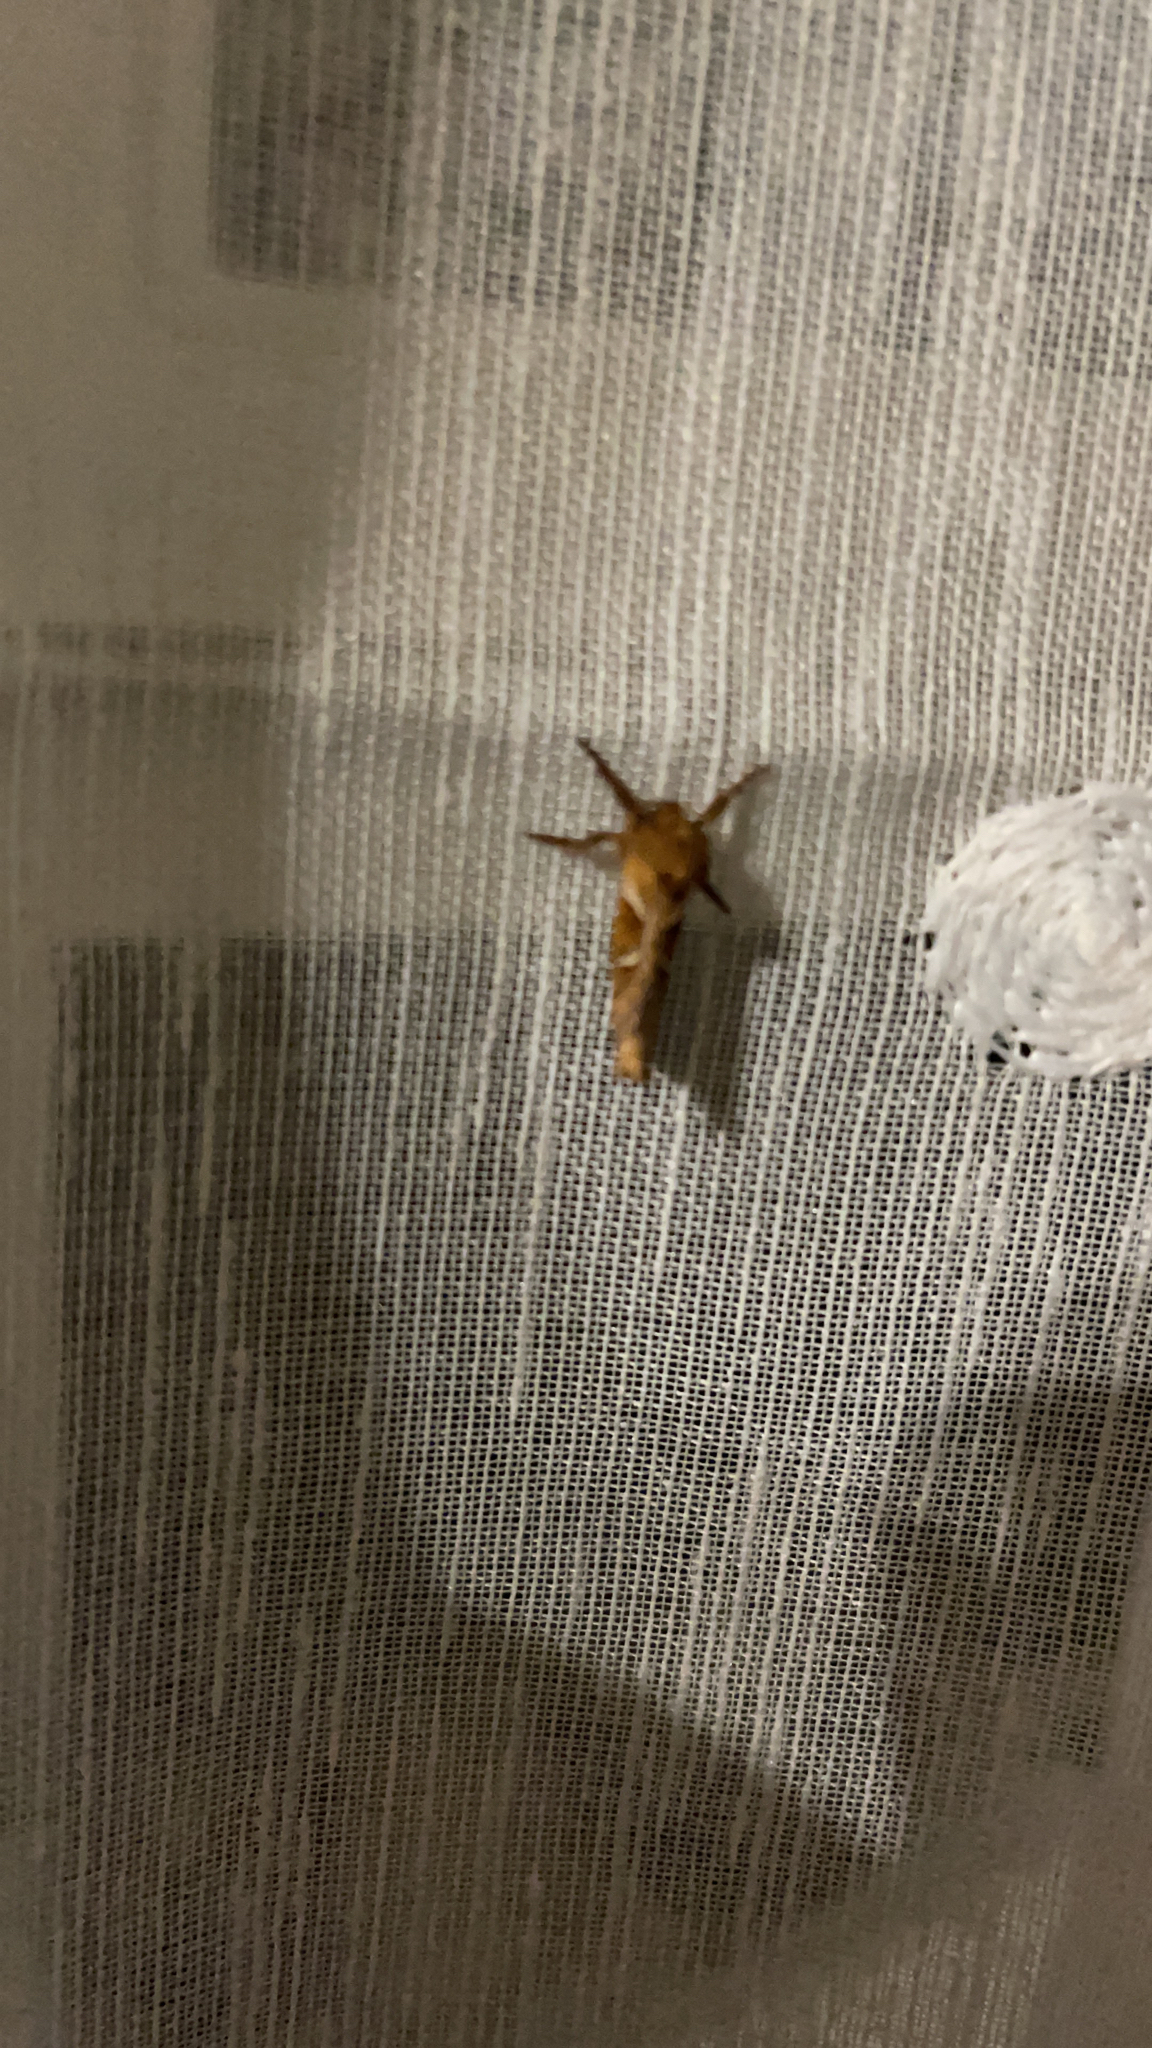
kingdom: Animalia
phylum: Arthropoda
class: Insecta
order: Lepidoptera
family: Hepialidae
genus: Triodia
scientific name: Triodia sylvina
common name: Orange swift
